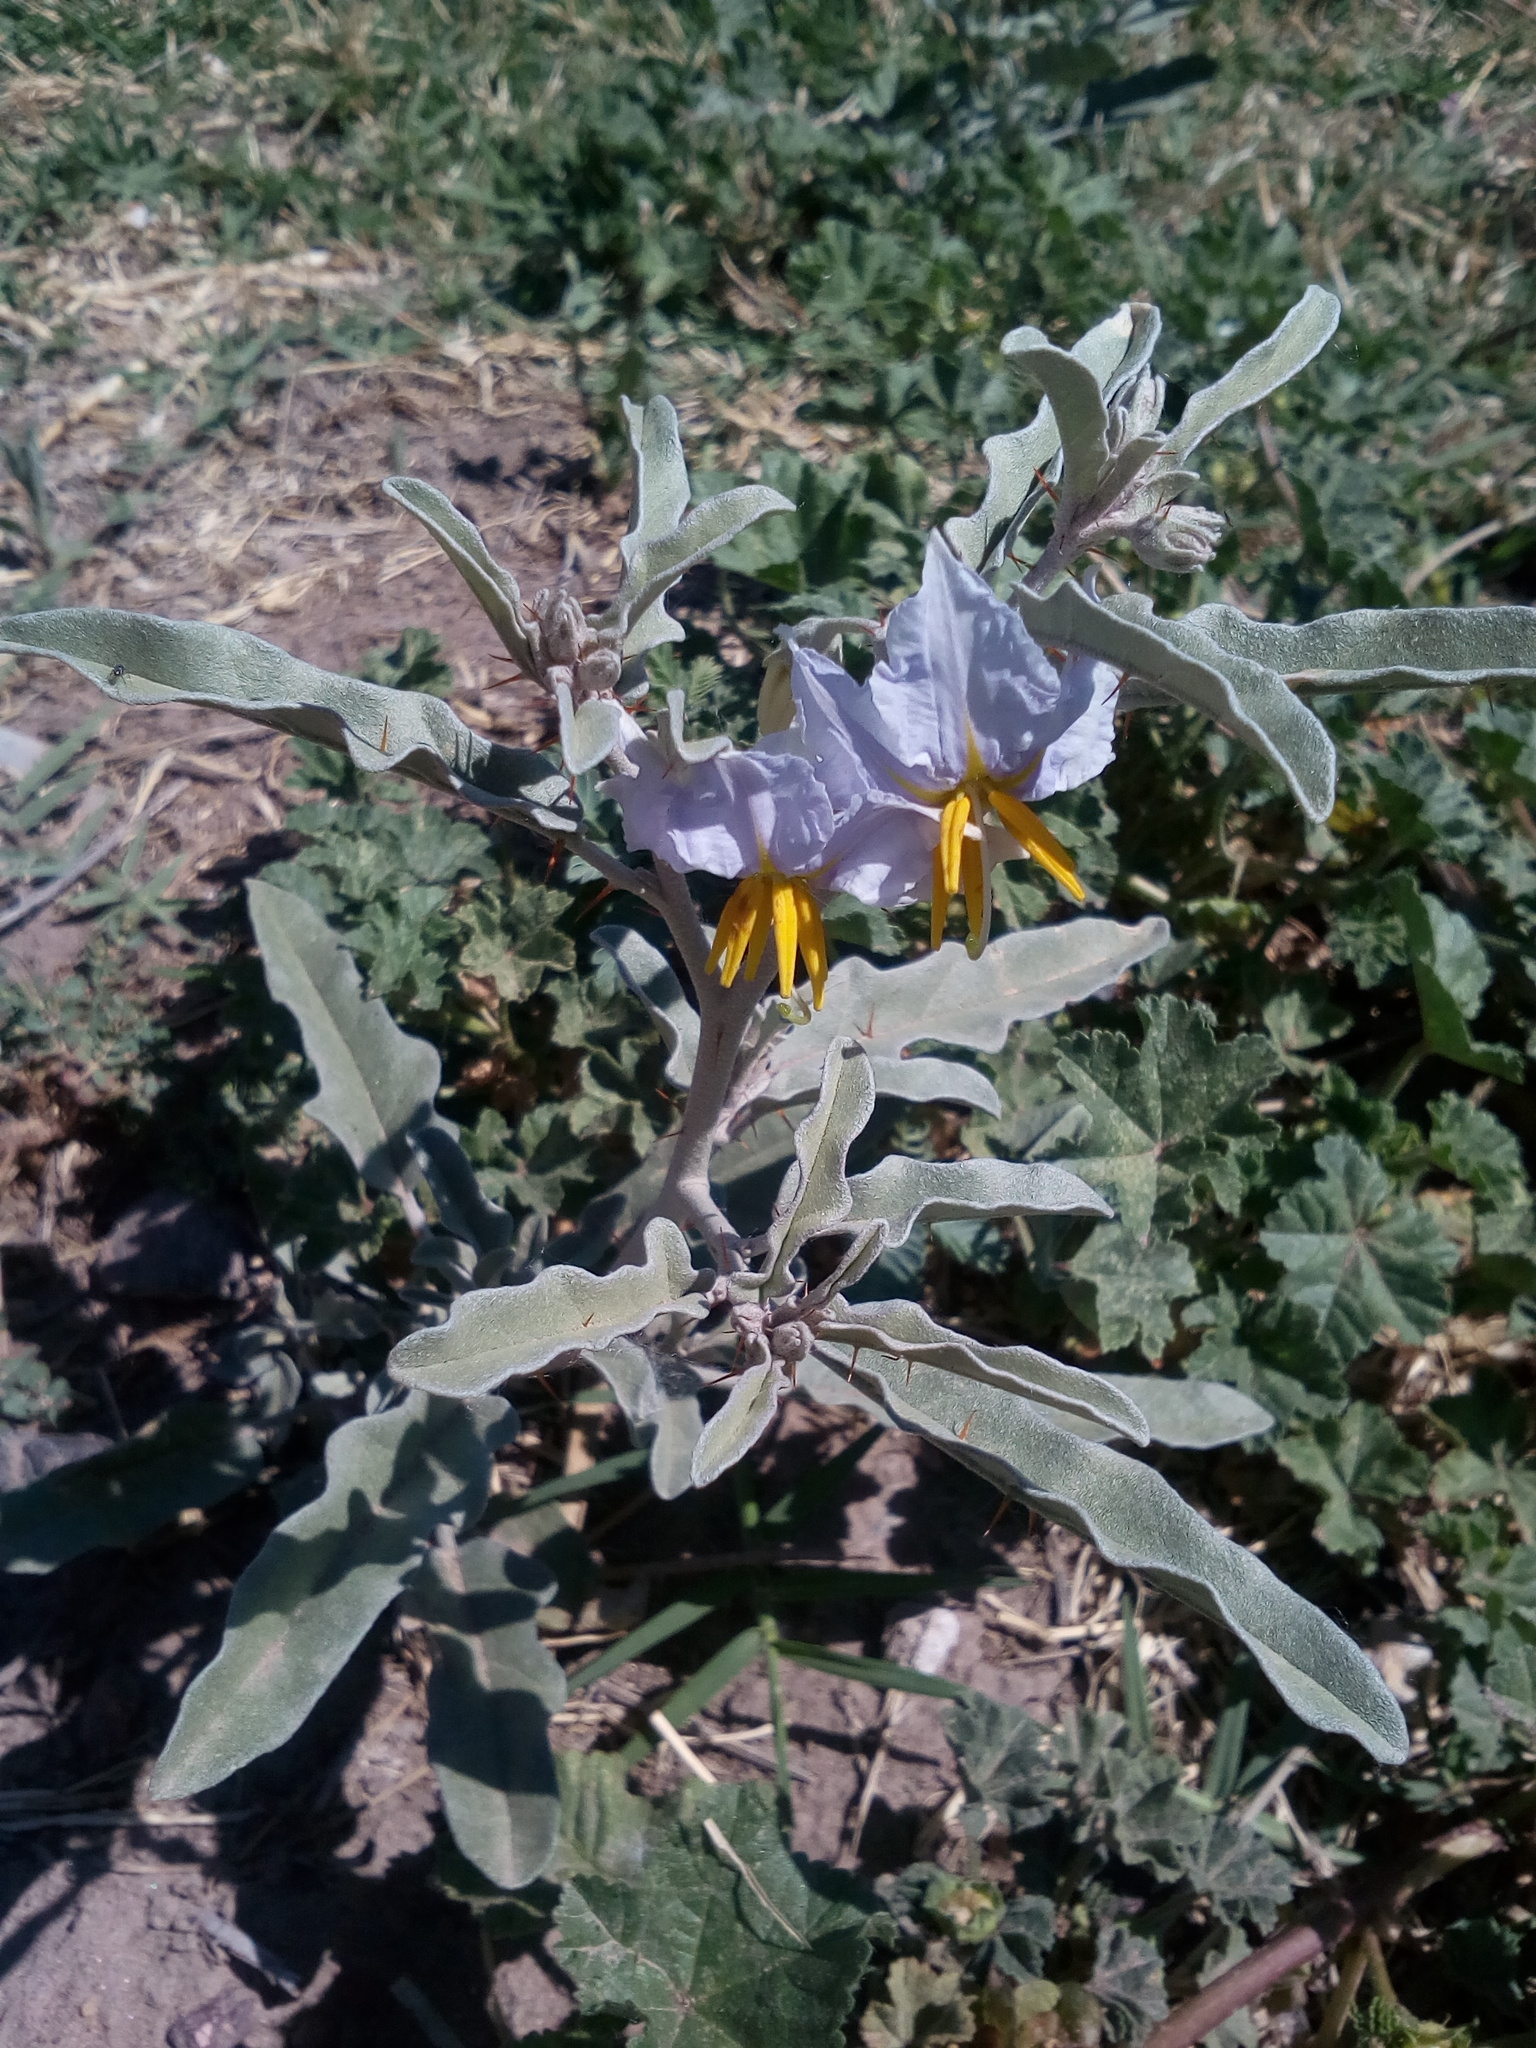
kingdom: Plantae
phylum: Tracheophyta
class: Magnoliopsida
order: Solanales
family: Solanaceae
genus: Solanum
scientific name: Solanum elaeagnifolium
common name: Silverleaf nightshade
